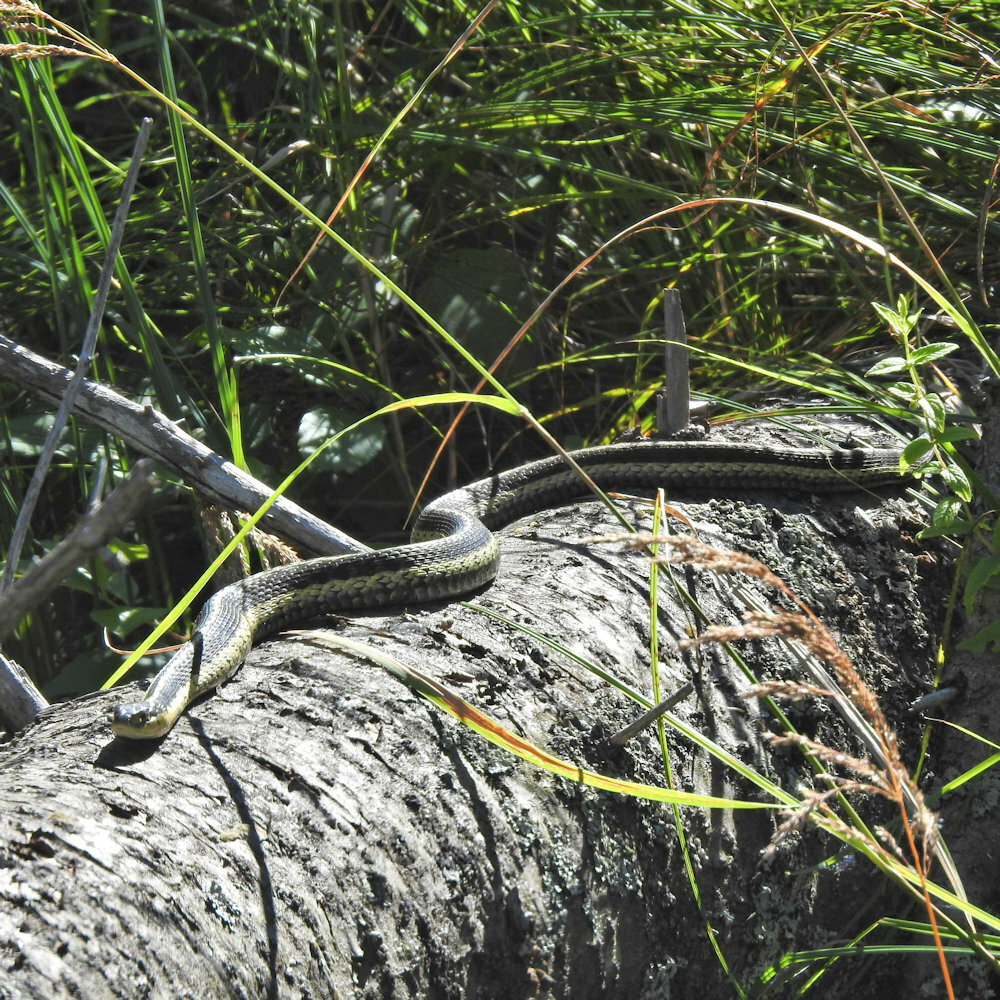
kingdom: Animalia
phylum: Chordata
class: Squamata
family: Colubridae
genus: Thamnophis
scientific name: Thamnophis sirtalis
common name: Common garter snake
